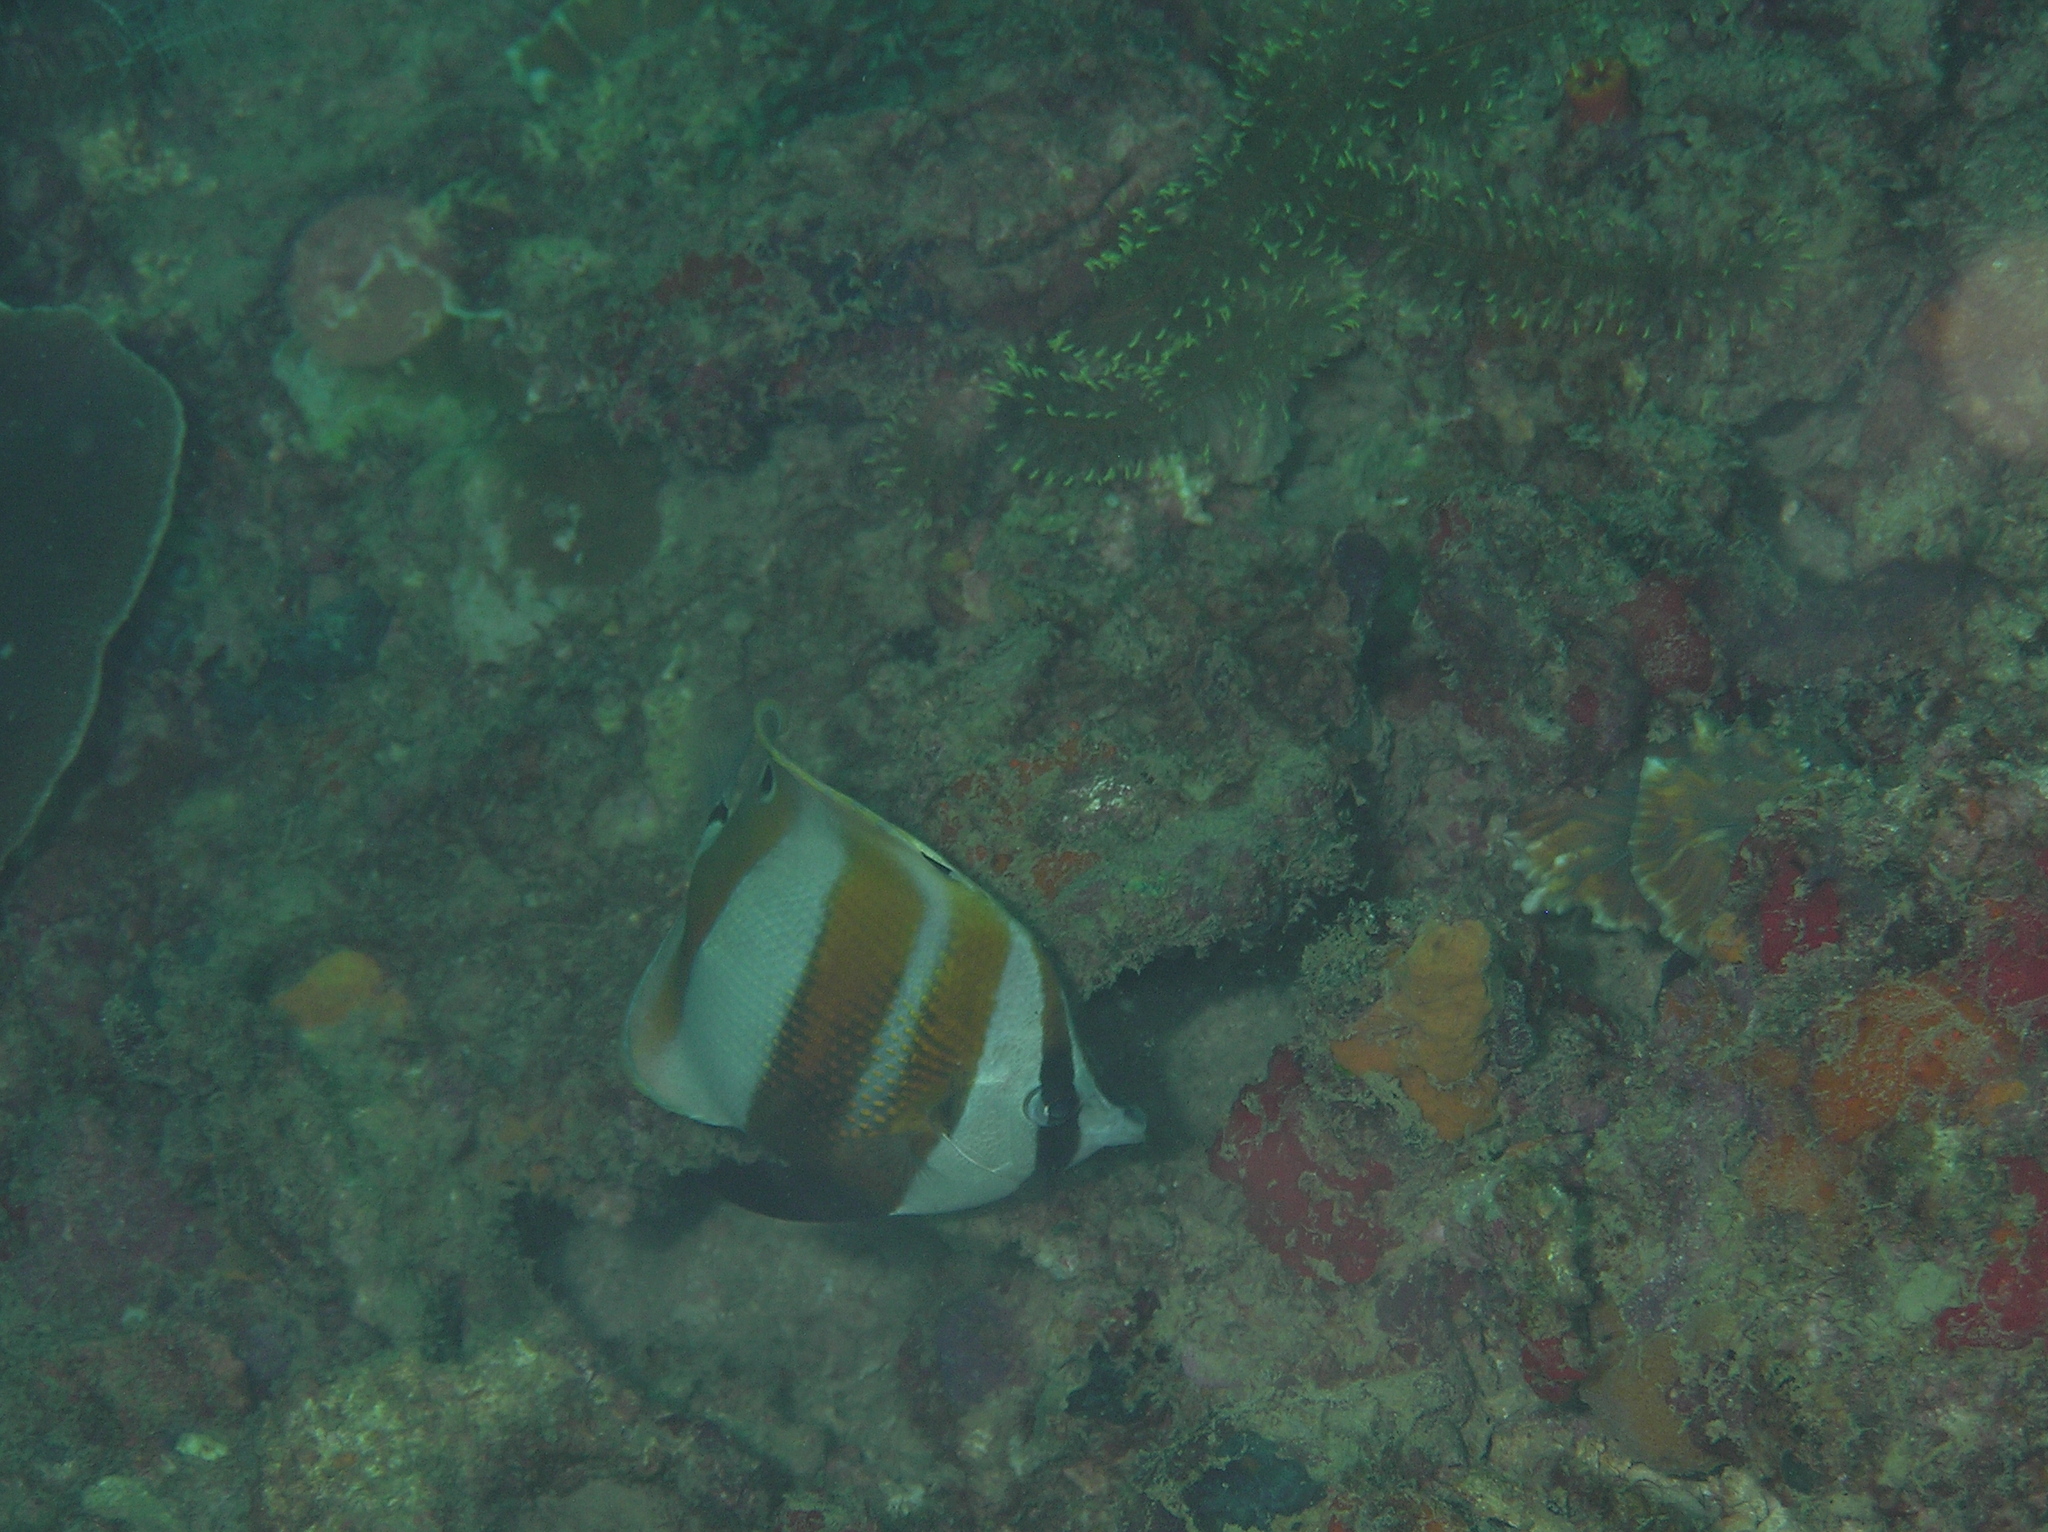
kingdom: Animalia
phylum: Chordata
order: Perciformes
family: Chaetodontidae
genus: Coradion
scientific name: Coradion chrysozonus
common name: Orange-banded coralfish
